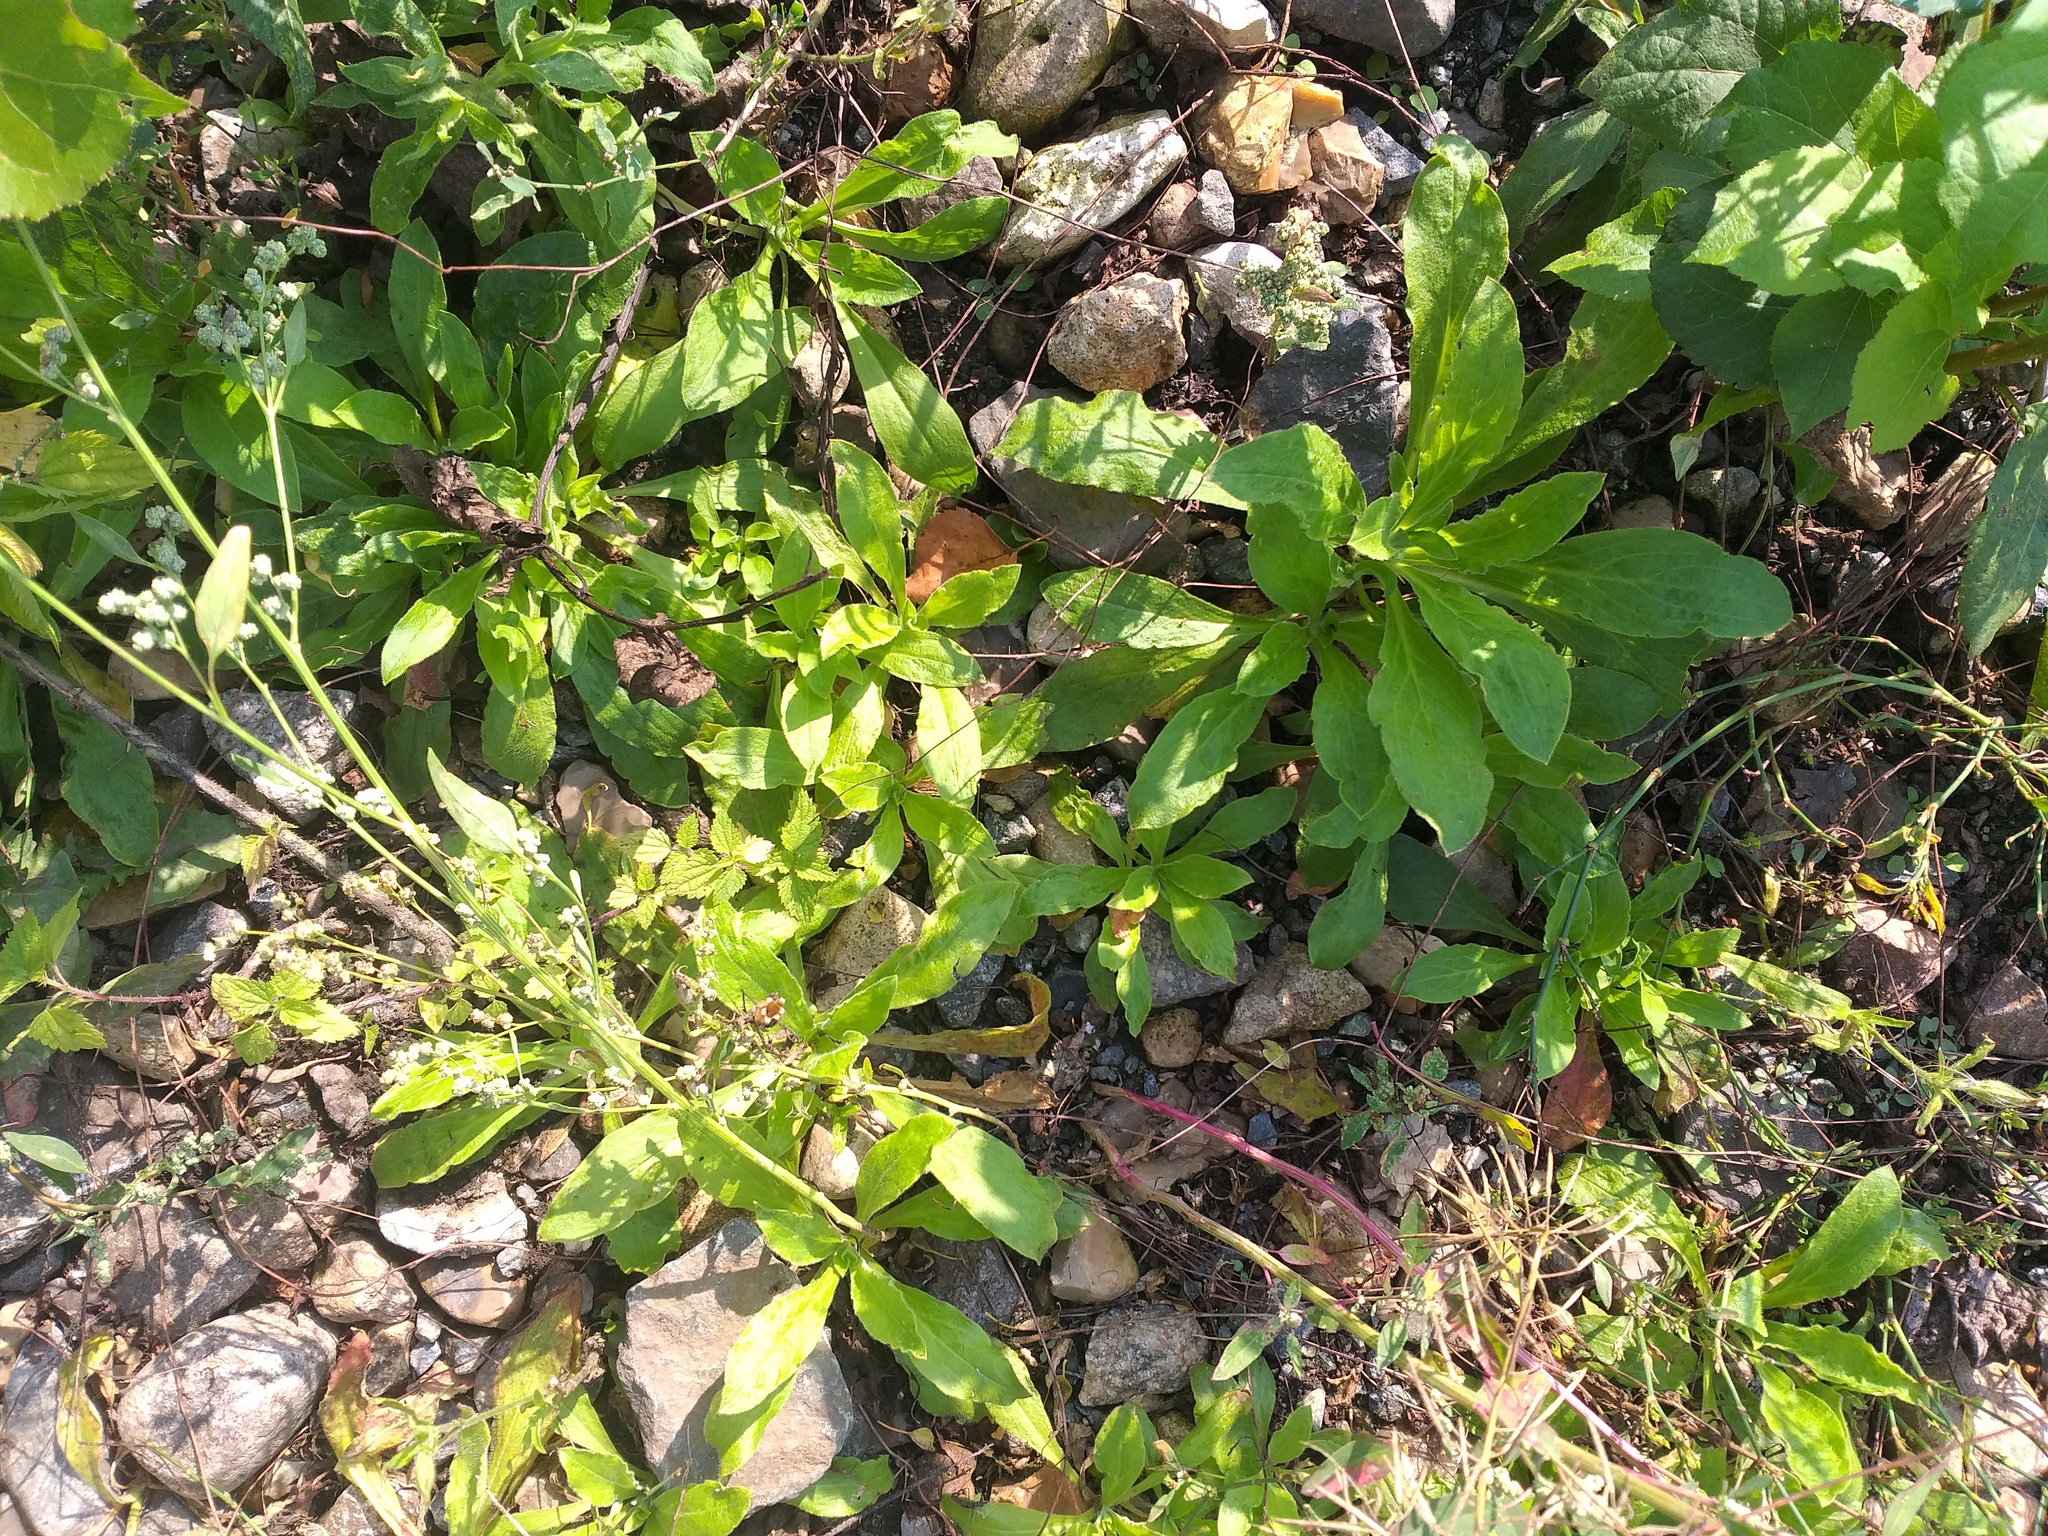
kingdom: Plantae
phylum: Tracheophyta
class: Magnoliopsida
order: Caryophyllales
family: Caryophyllaceae
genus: Silene
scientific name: Silene noctiflora
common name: Night-flowering catchfly
